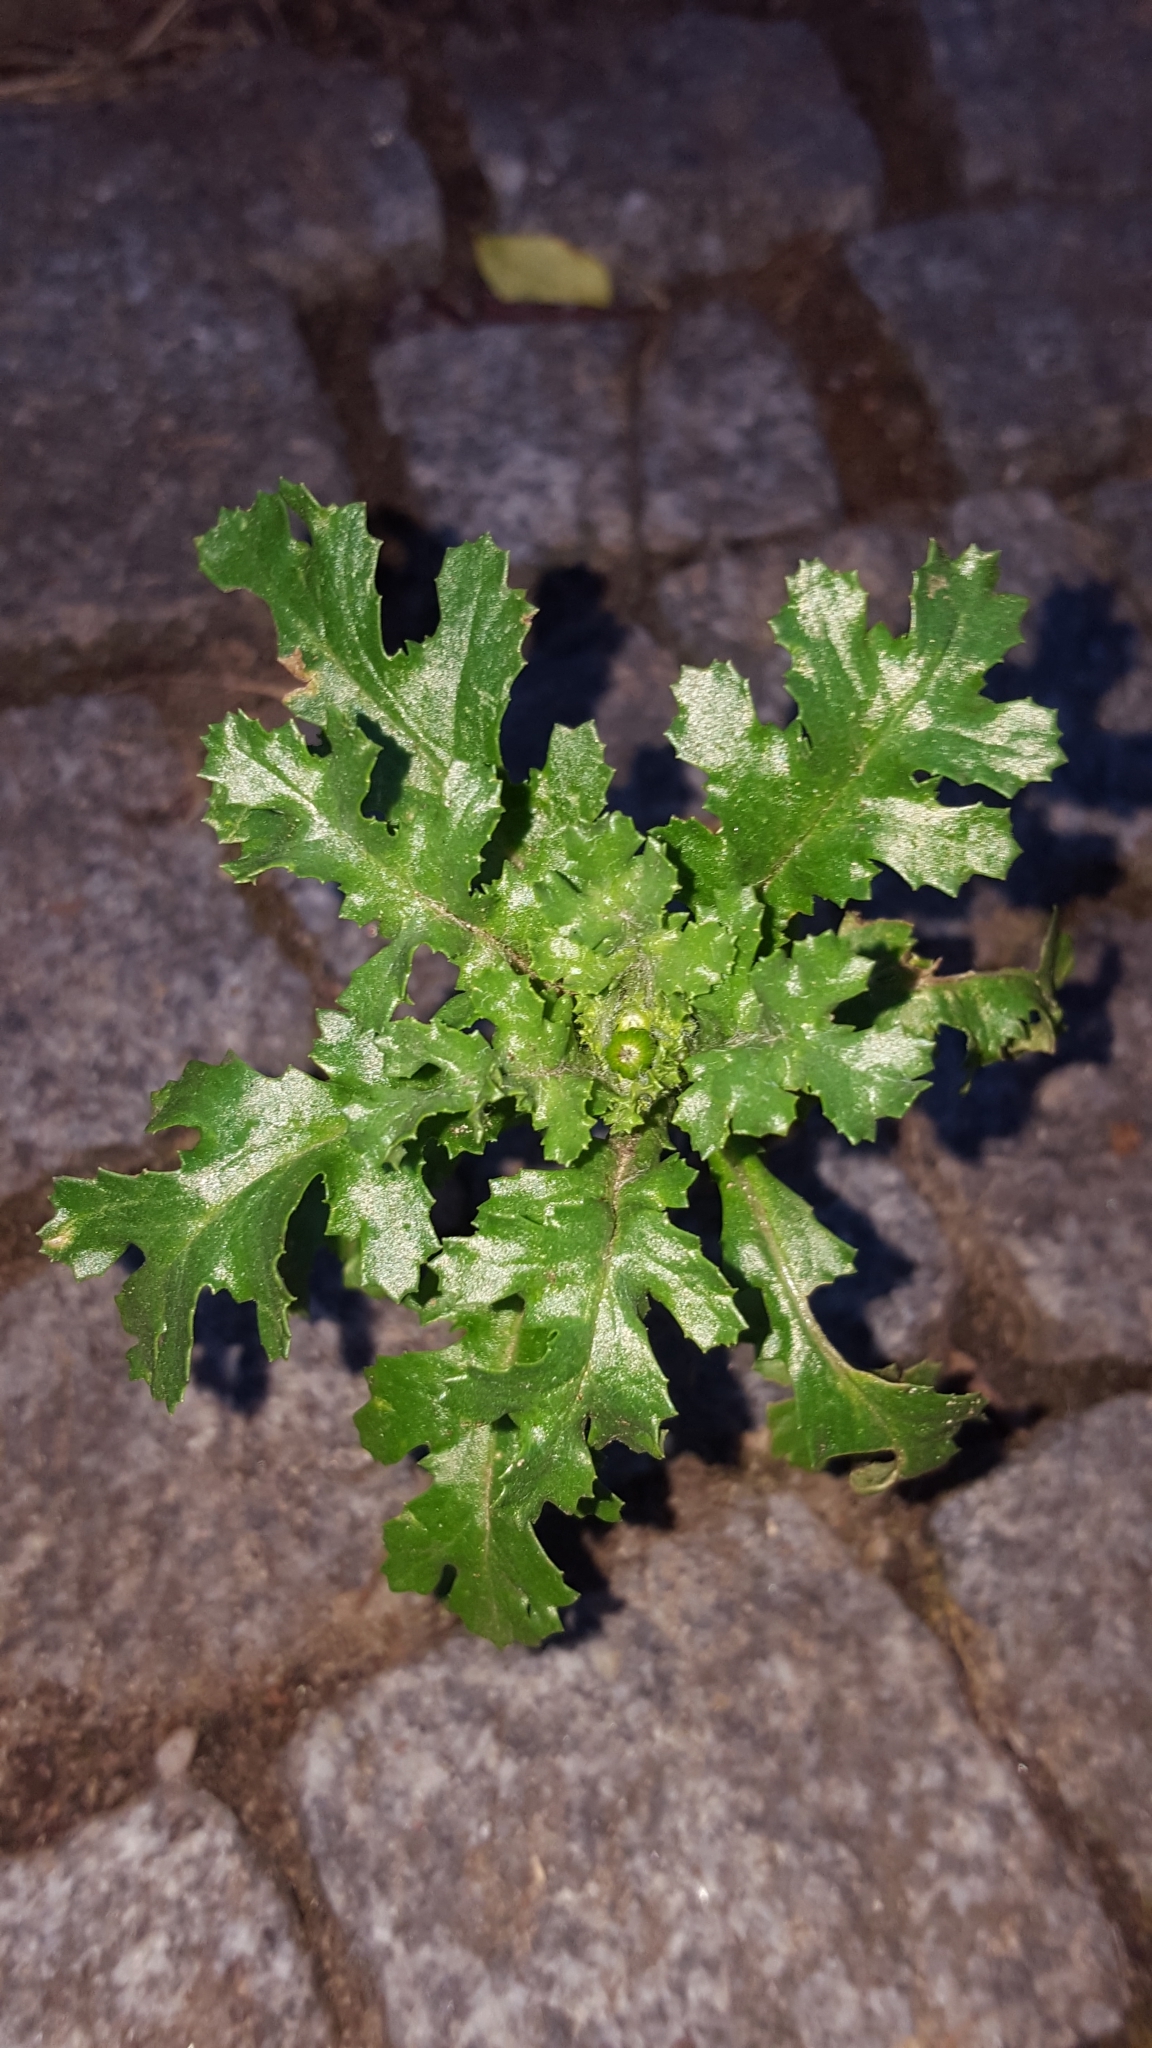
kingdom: Plantae
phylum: Tracheophyta
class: Magnoliopsida
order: Asterales
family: Asteraceae
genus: Senecio
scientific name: Senecio vulgaris
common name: Old-man-in-the-spring
